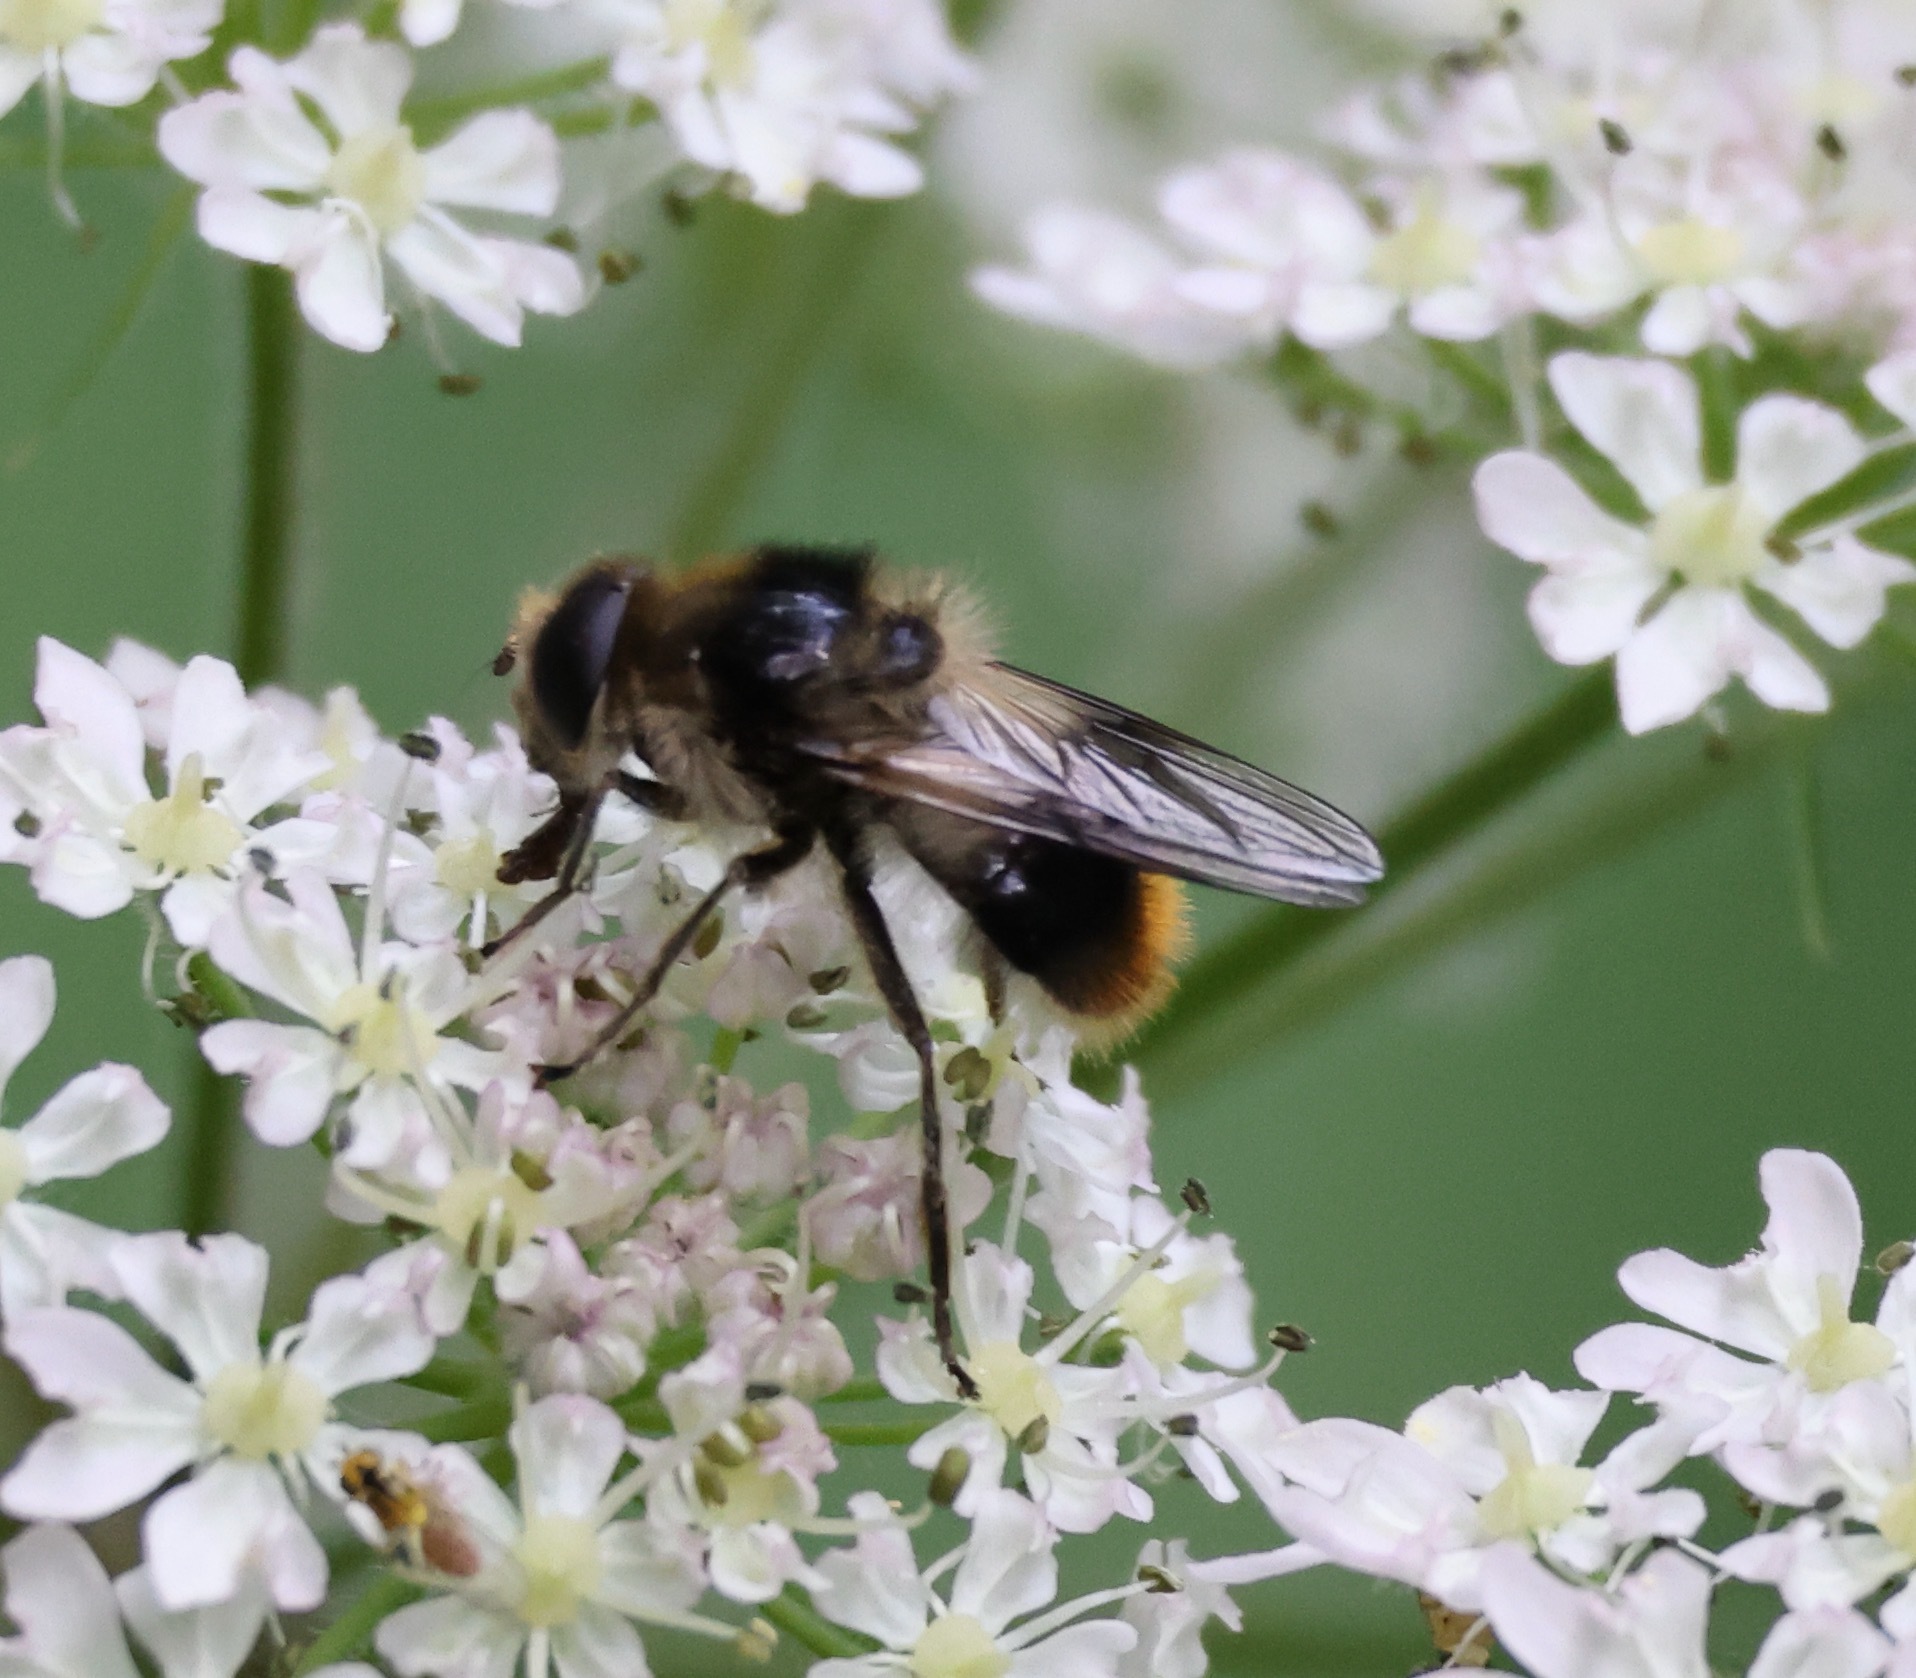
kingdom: Animalia
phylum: Arthropoda
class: Insecta
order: Diptera
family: Syrphidae
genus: Cheilosia
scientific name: Cheilosia illustrata
